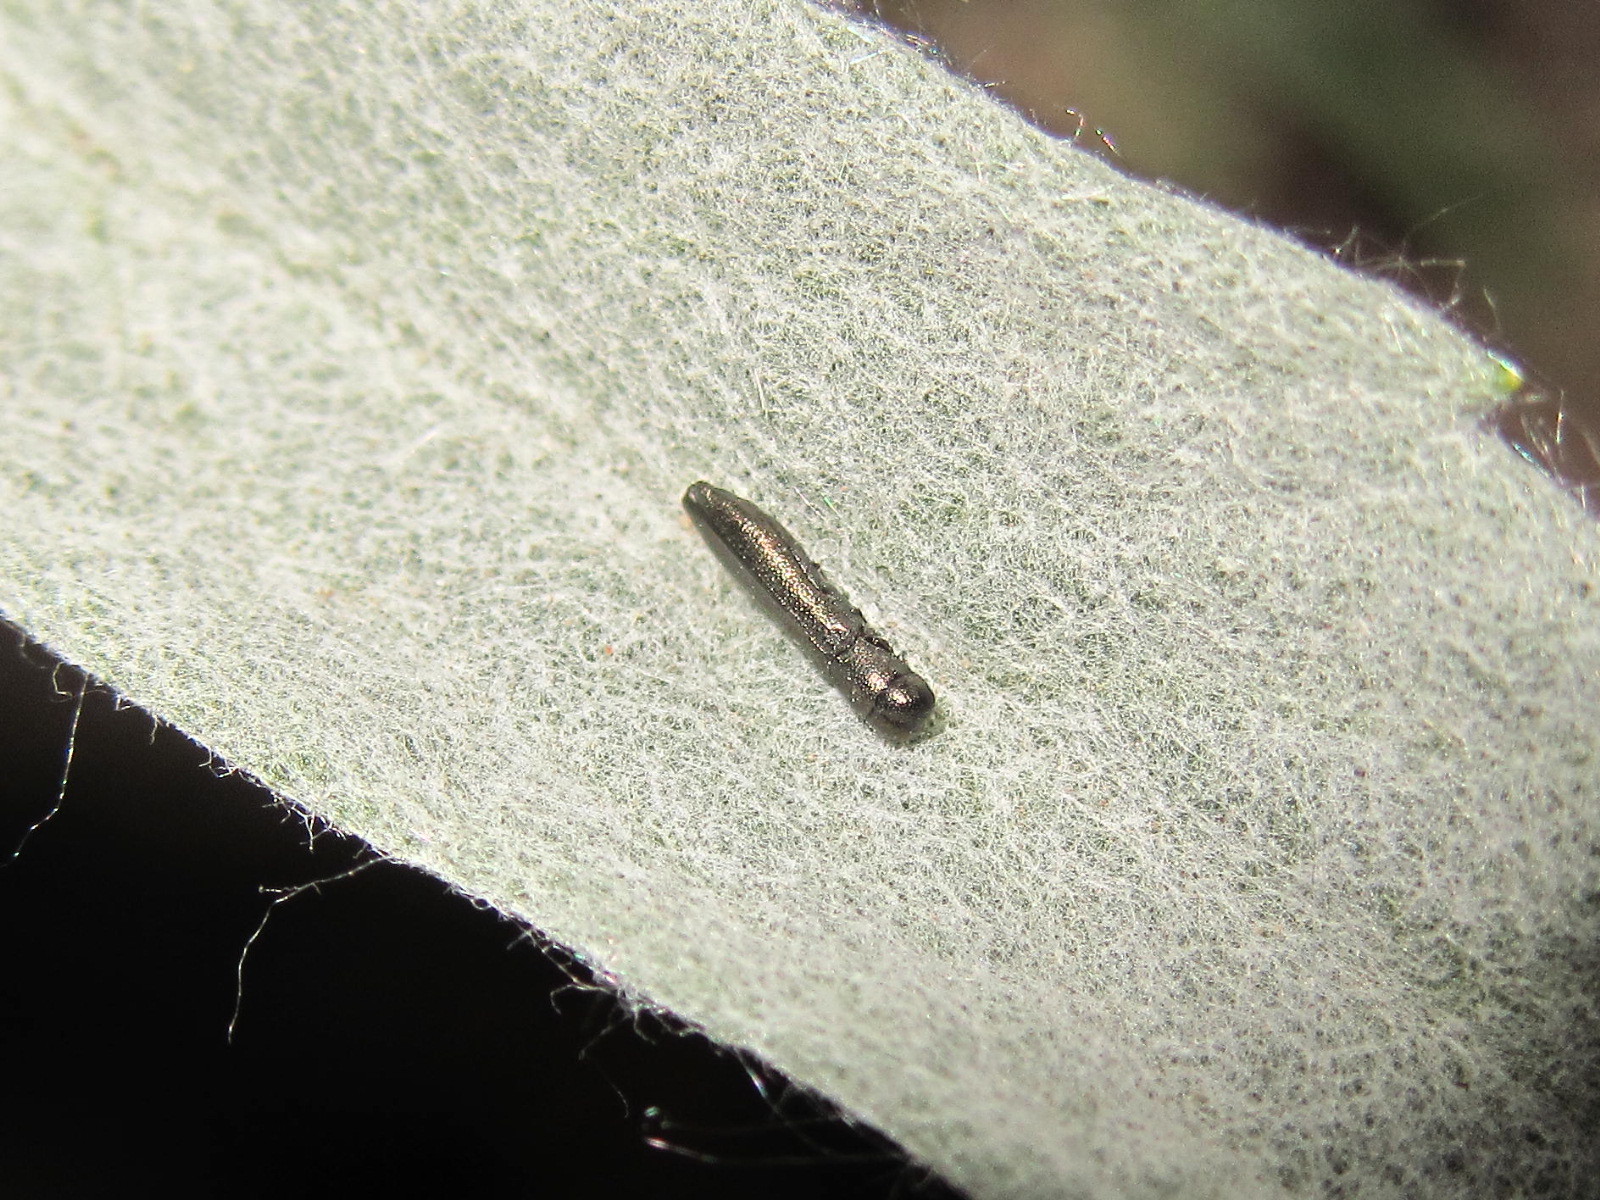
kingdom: Animalia
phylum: Arthropoda
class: Insecta
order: Coleoptera
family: Buprestidae
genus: Cylindromorphus
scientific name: Cylindromorphus filum
